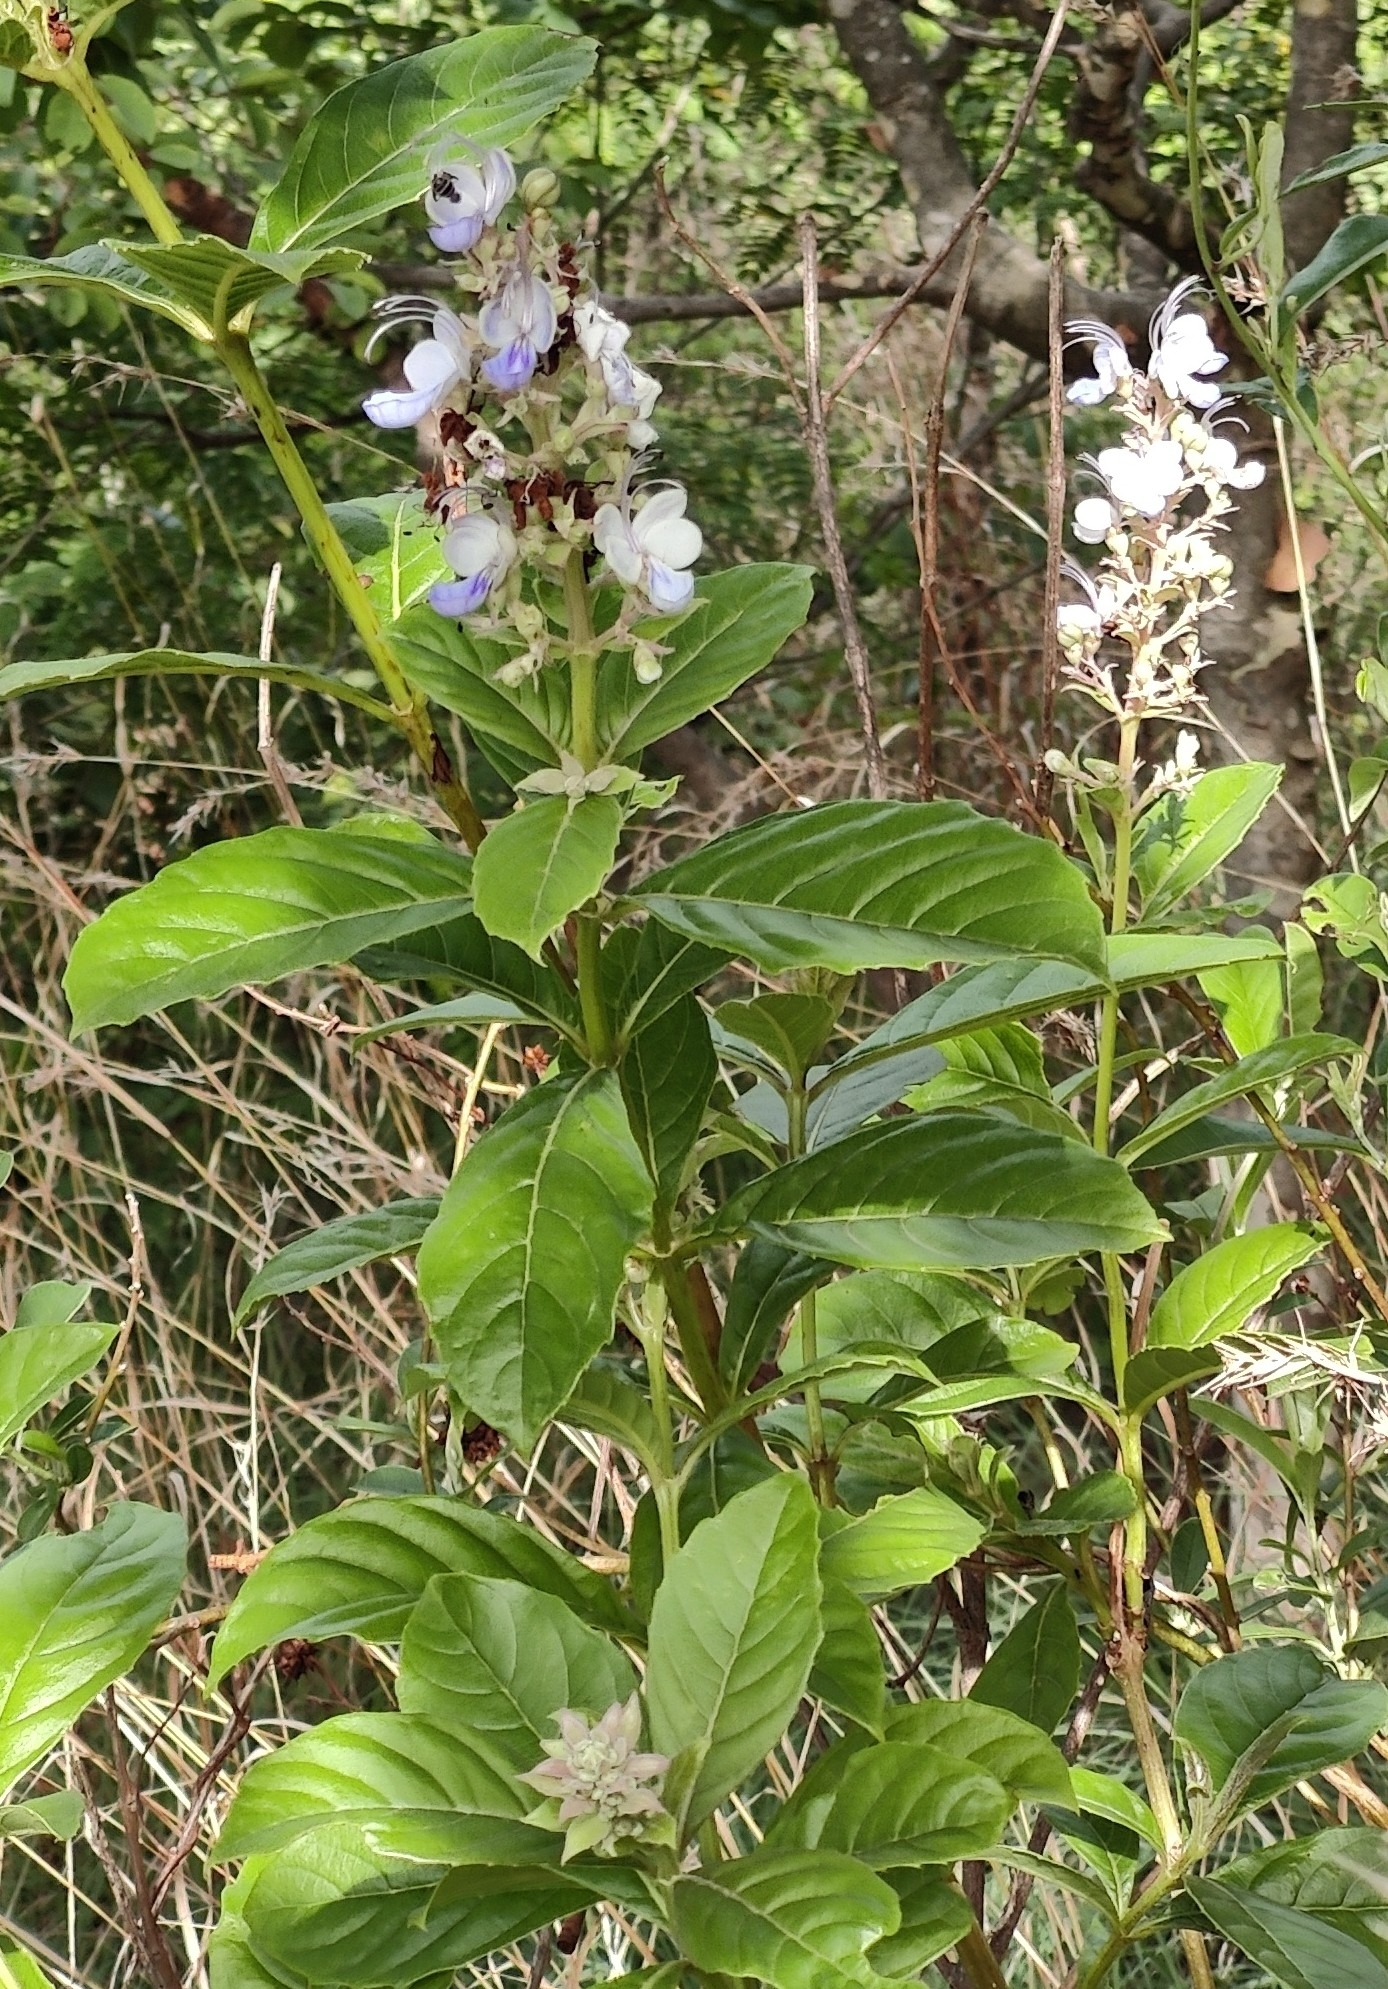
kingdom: Plantae
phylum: Tracheophyta
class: Magnoliopsida
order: Lamiales
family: Lamiaceae
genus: Rotheca
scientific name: Rotheca serrata
